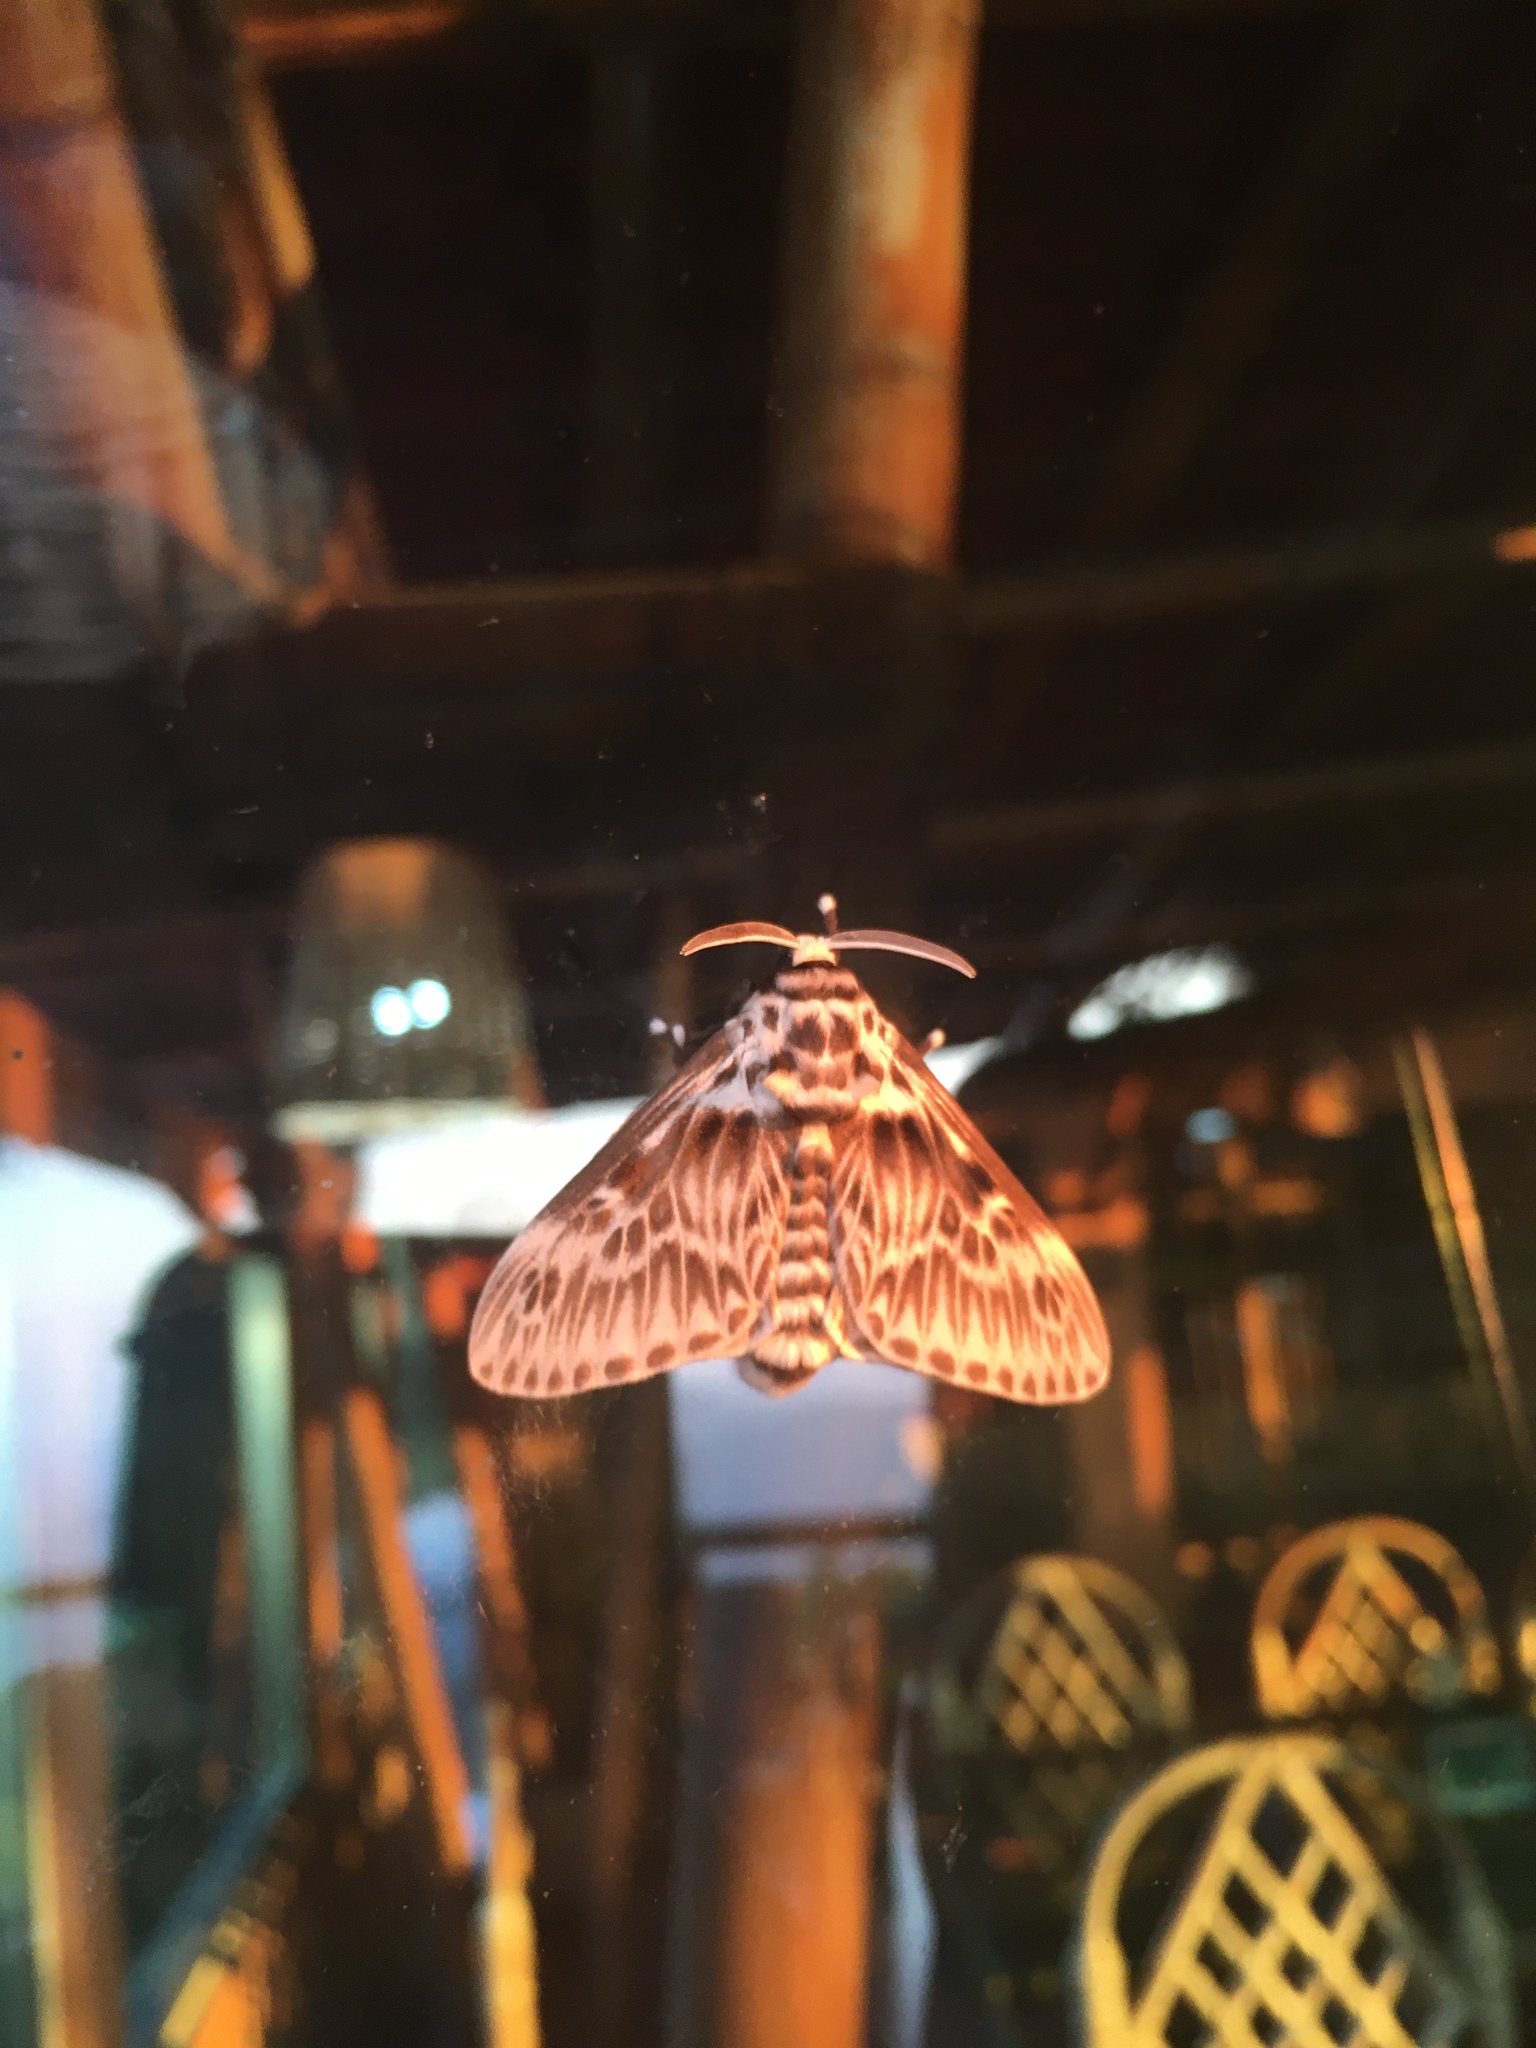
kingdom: Animalia
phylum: Arthropoda
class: Insecta
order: Lepidoptera
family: Megalopygidae
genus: Podalia
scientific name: Podalia orsilochus
